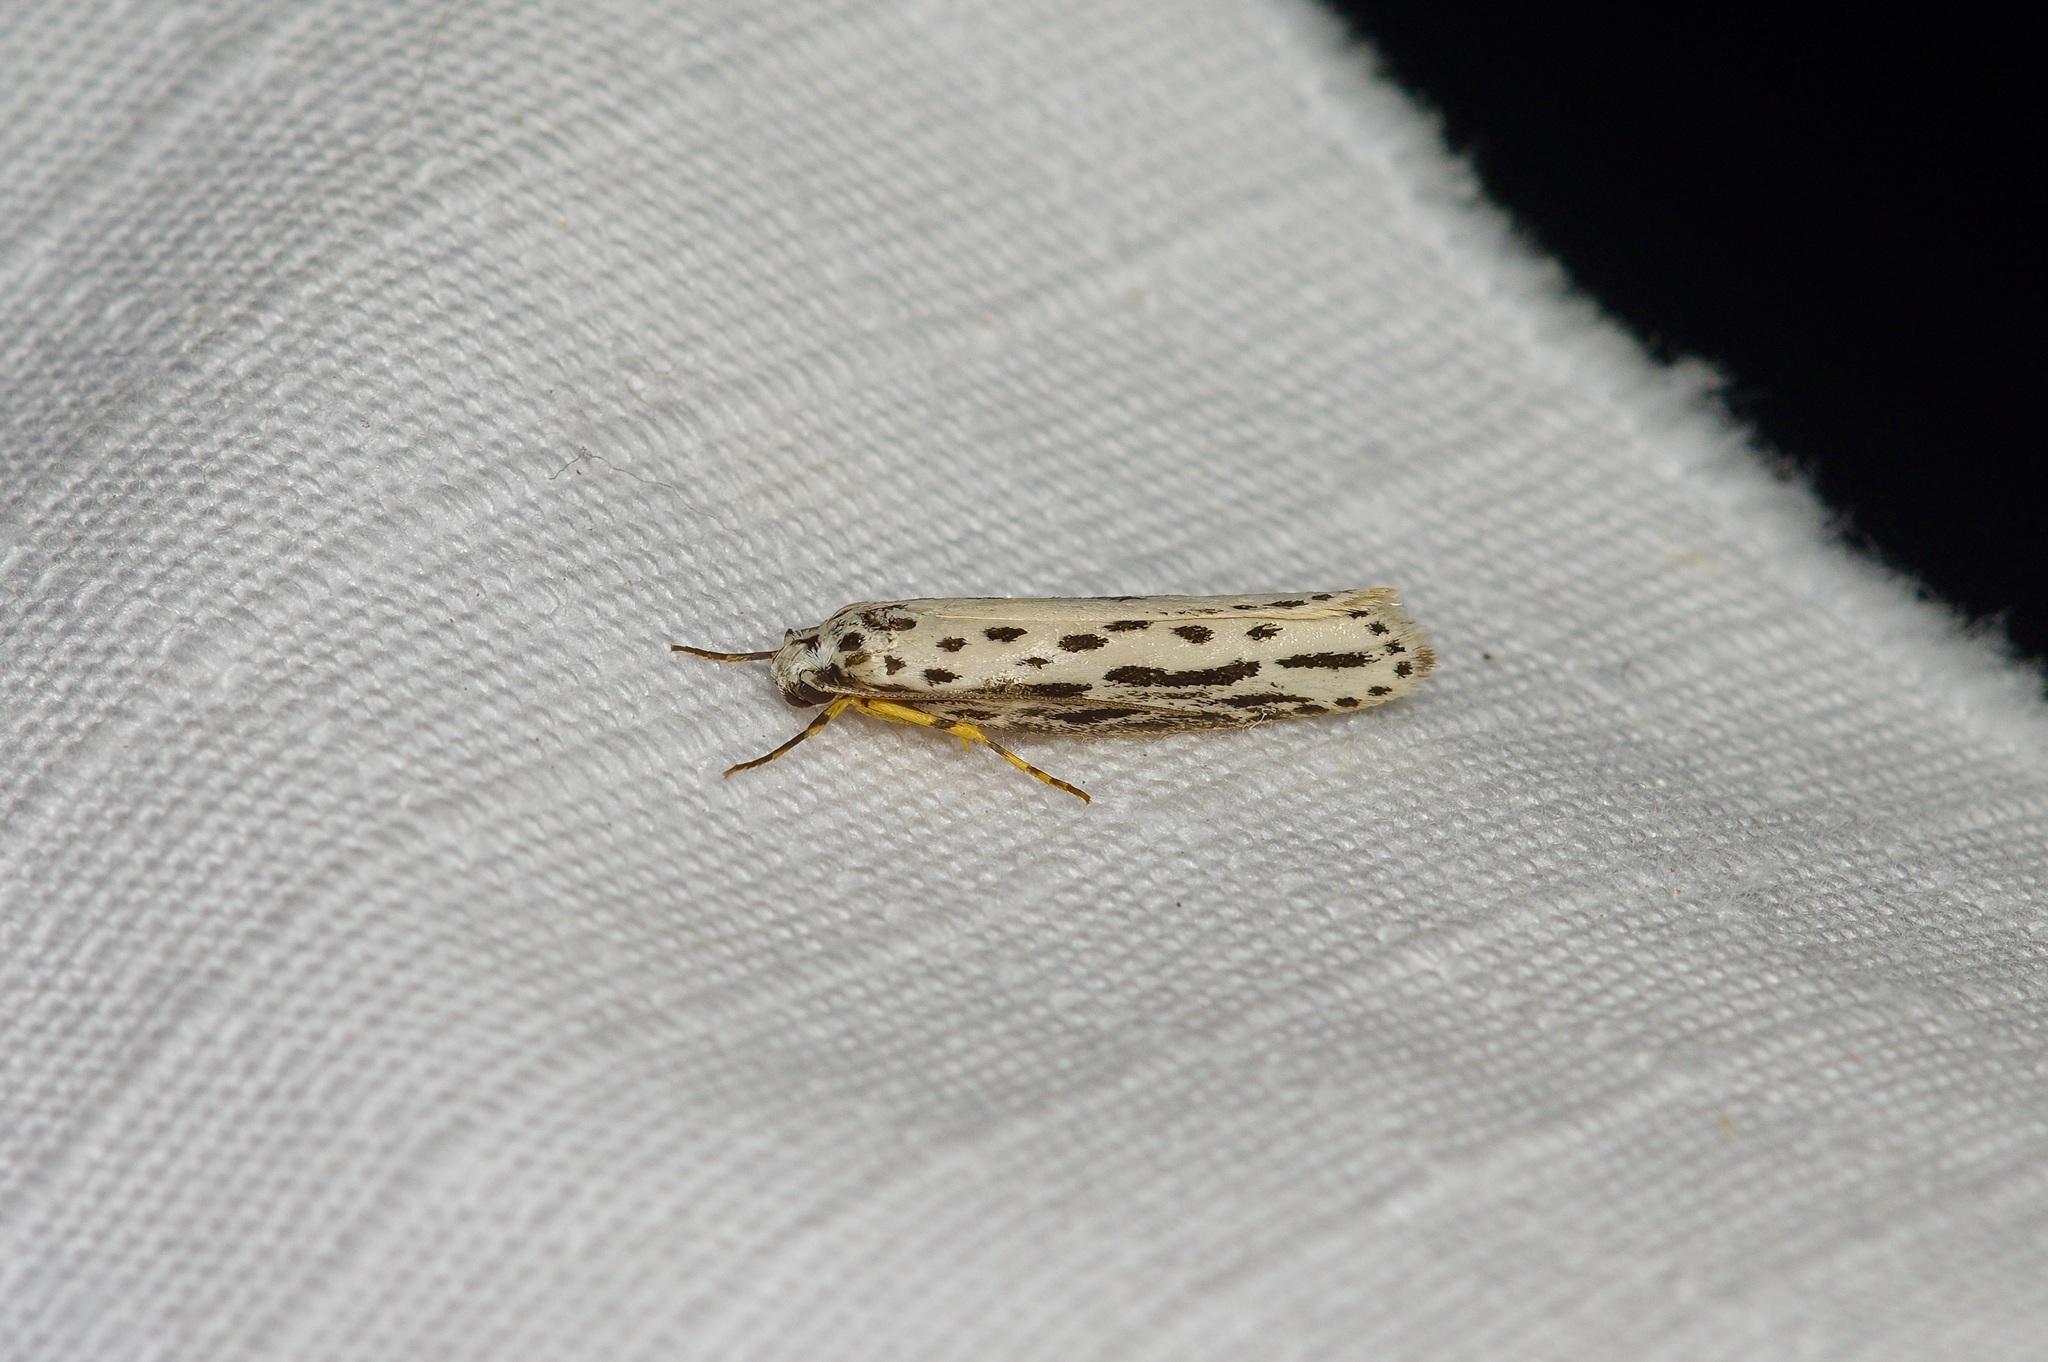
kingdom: Animalia
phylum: Arthropoda
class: Insecta
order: Lepidoptera
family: Ethmiidae
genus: Ethmia
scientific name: Ethmia zelleriella
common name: Zeller's ethmia
